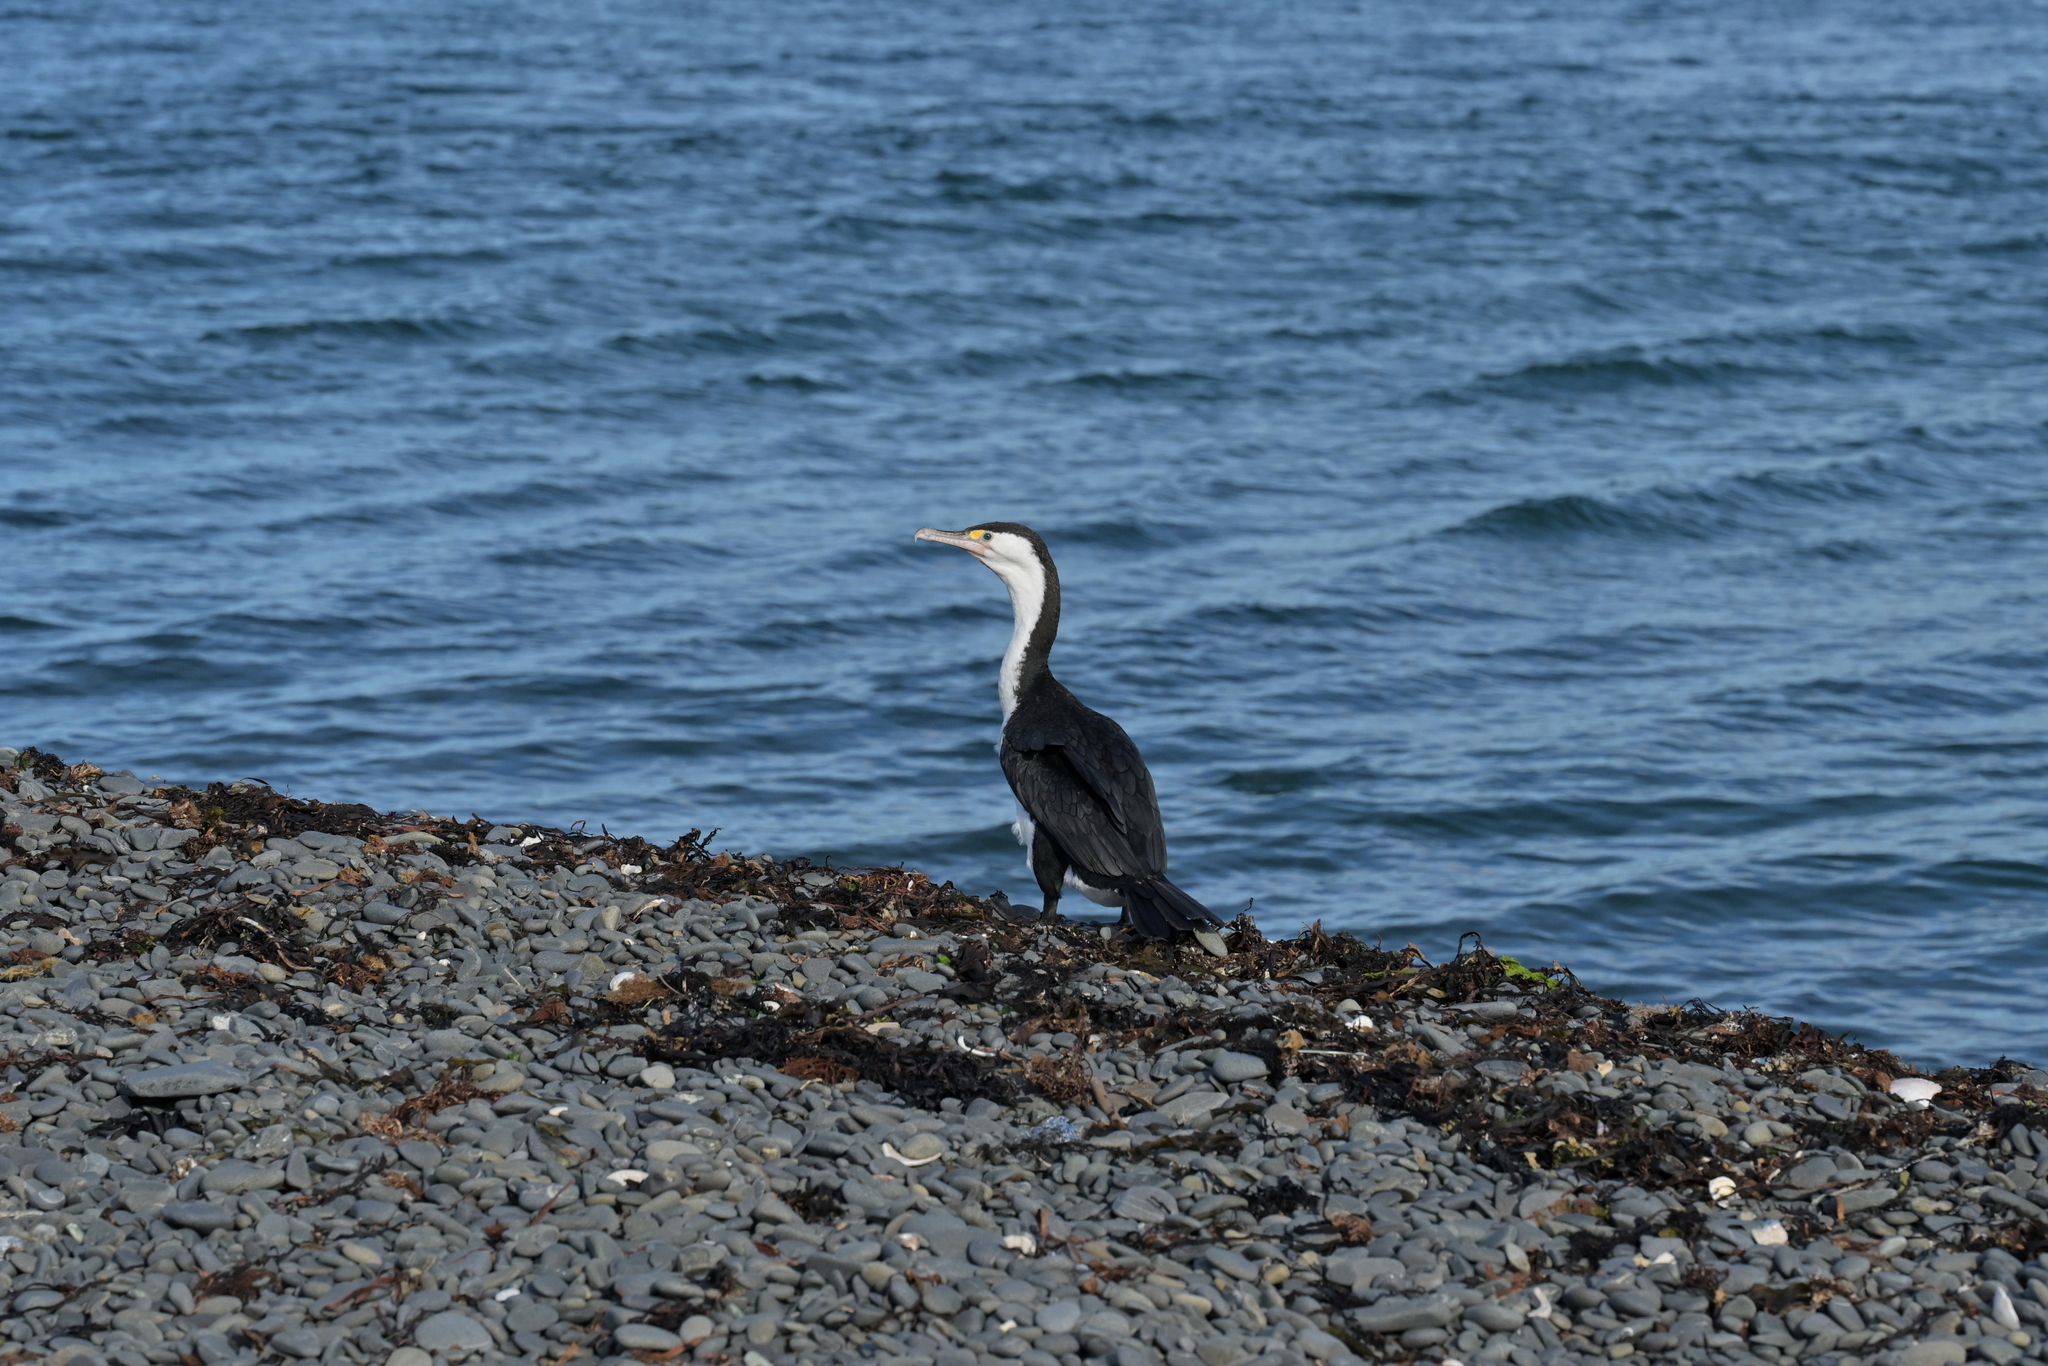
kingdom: Animalia
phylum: Chordata
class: Aves
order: Suliformes
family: Phalacrocoracidae
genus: Phalacrocorax
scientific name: Phalacrocorax varius
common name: Pied cormorant
